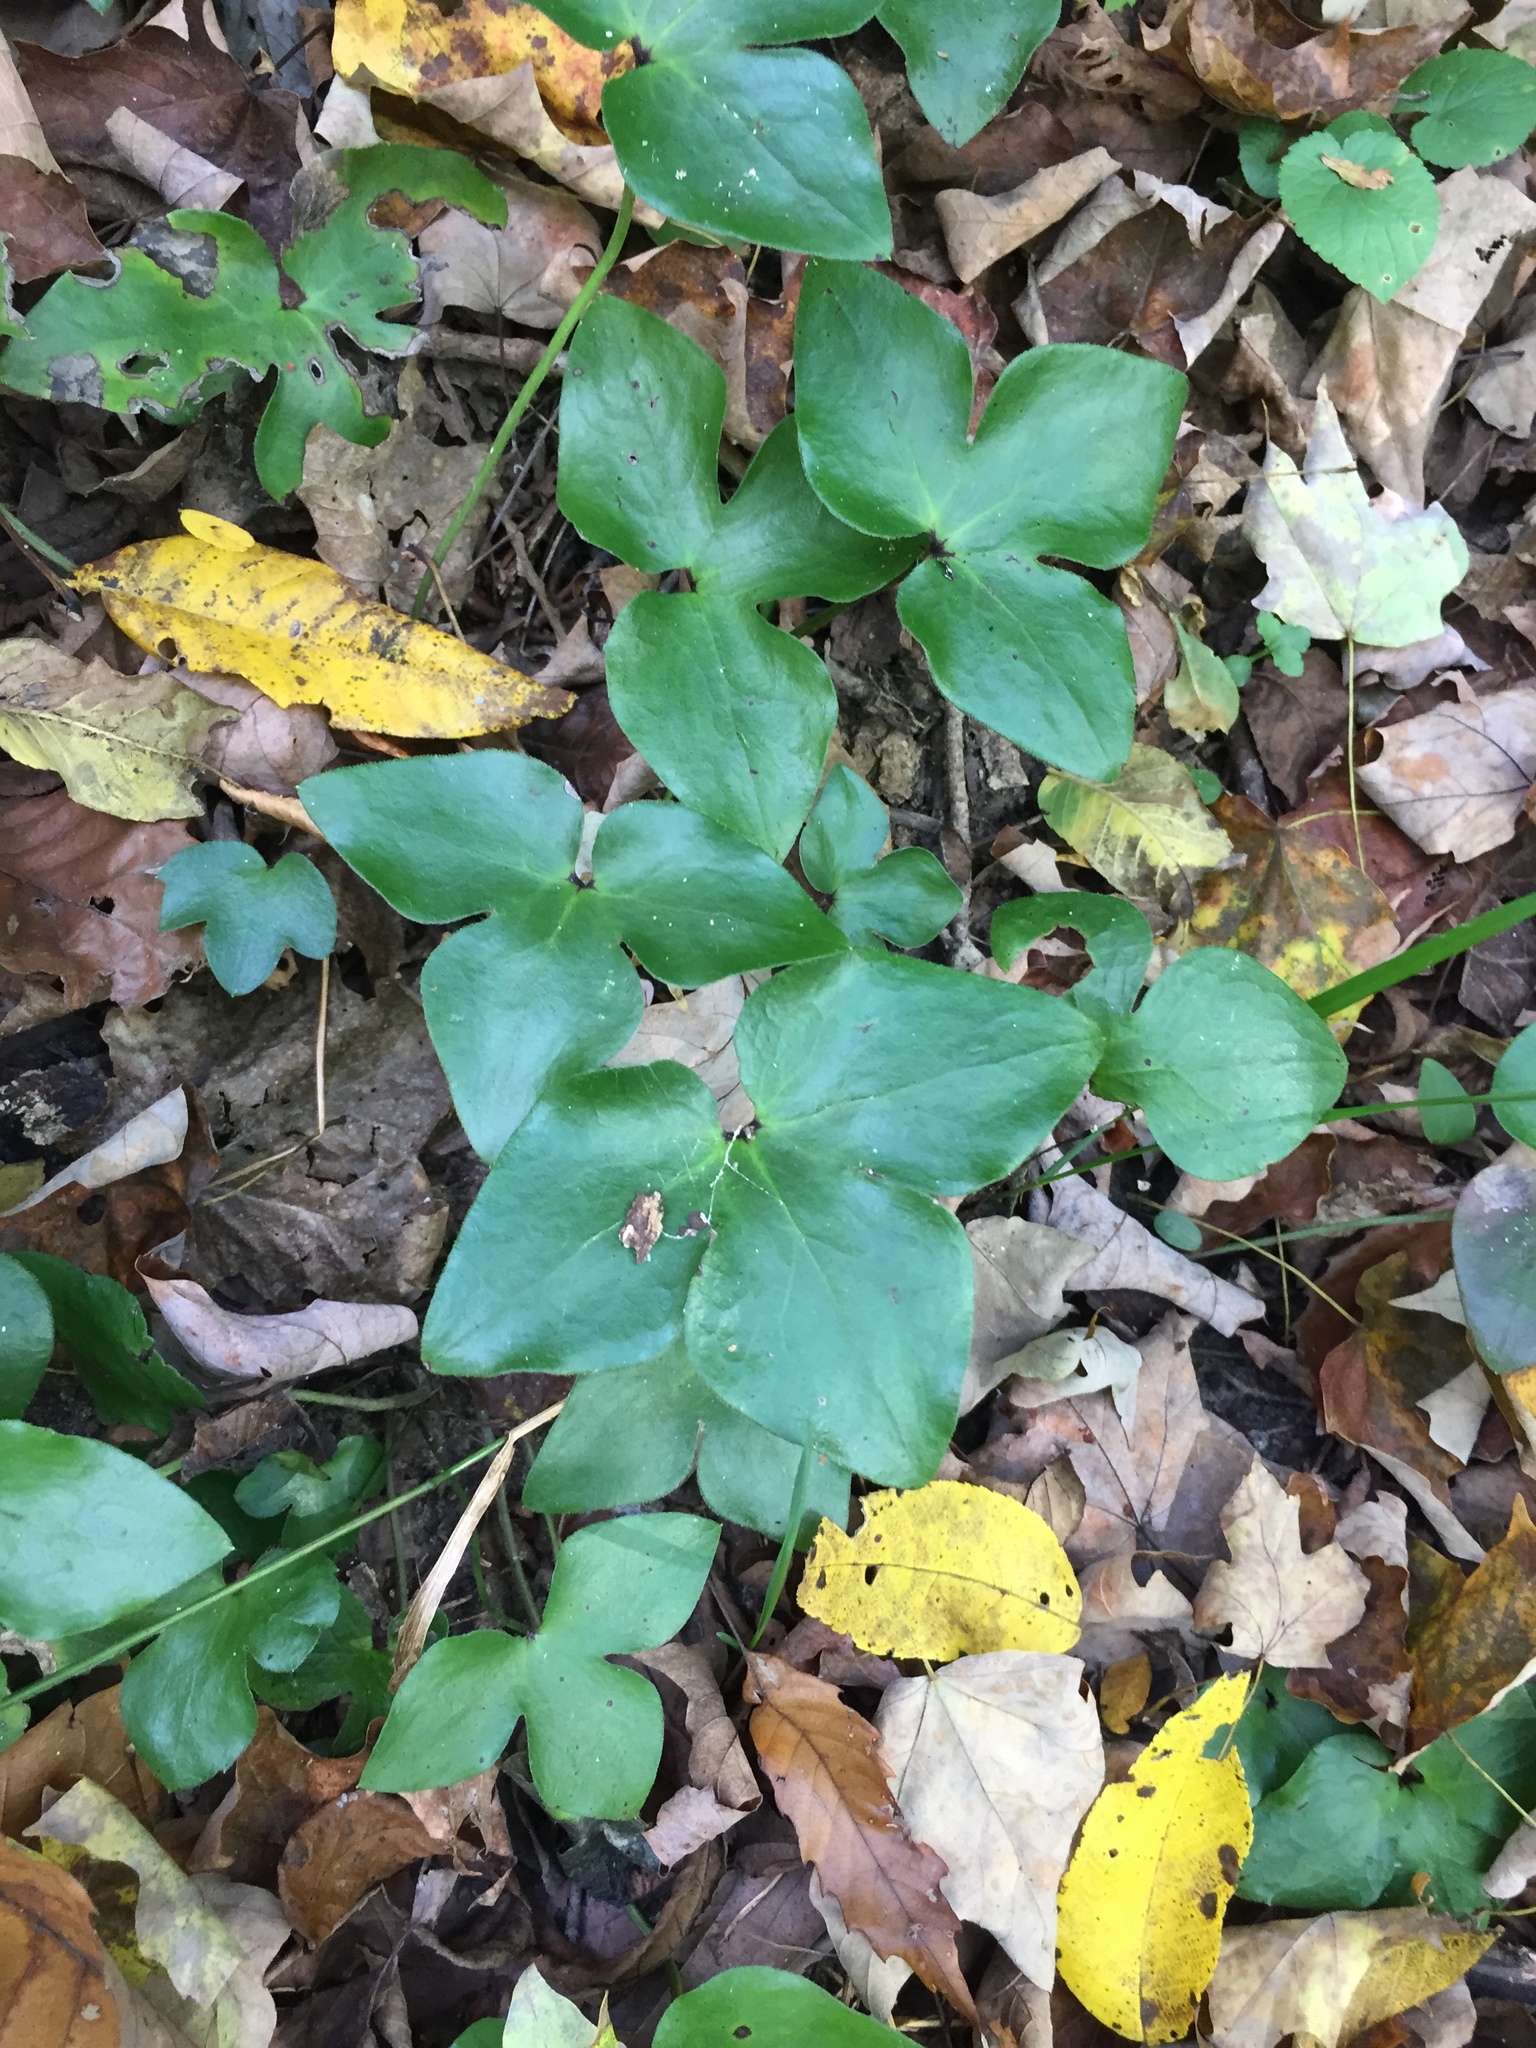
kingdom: Plantae
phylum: Tracheophyta
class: Magnoliopsida
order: Ranunculales
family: Ranunculaceae
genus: Hepatica
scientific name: Hepatica acutiloba
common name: Sharp-lobed hepatica
